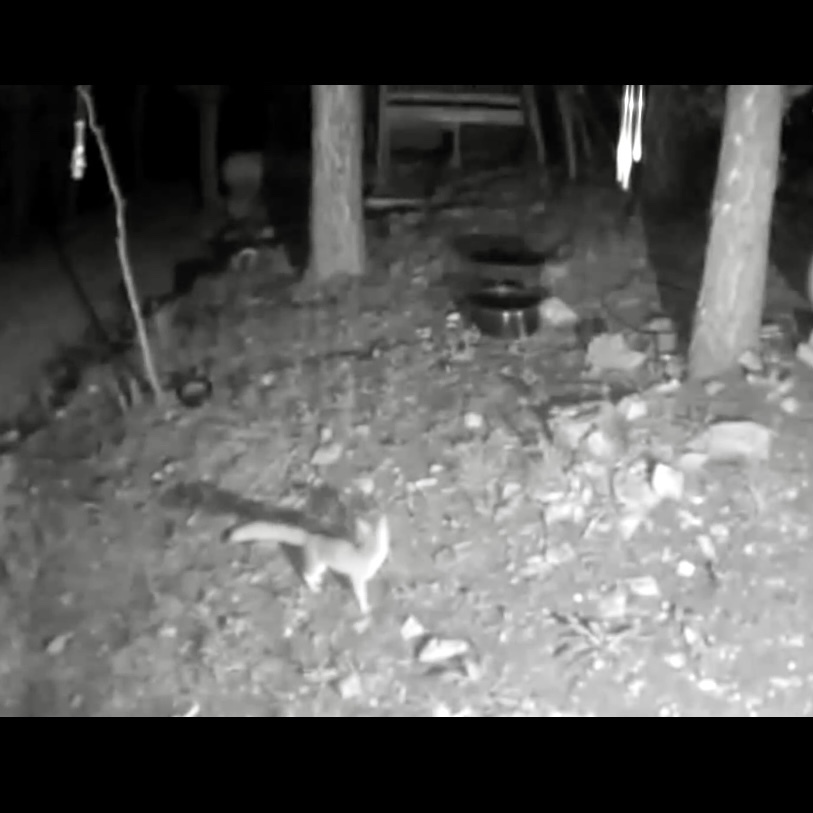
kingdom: Animalia
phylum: Chordata
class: Mammalia
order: Carnivora
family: Canidae
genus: Urocyon
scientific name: Urocyon cinereoargenteus
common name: Gray fox
